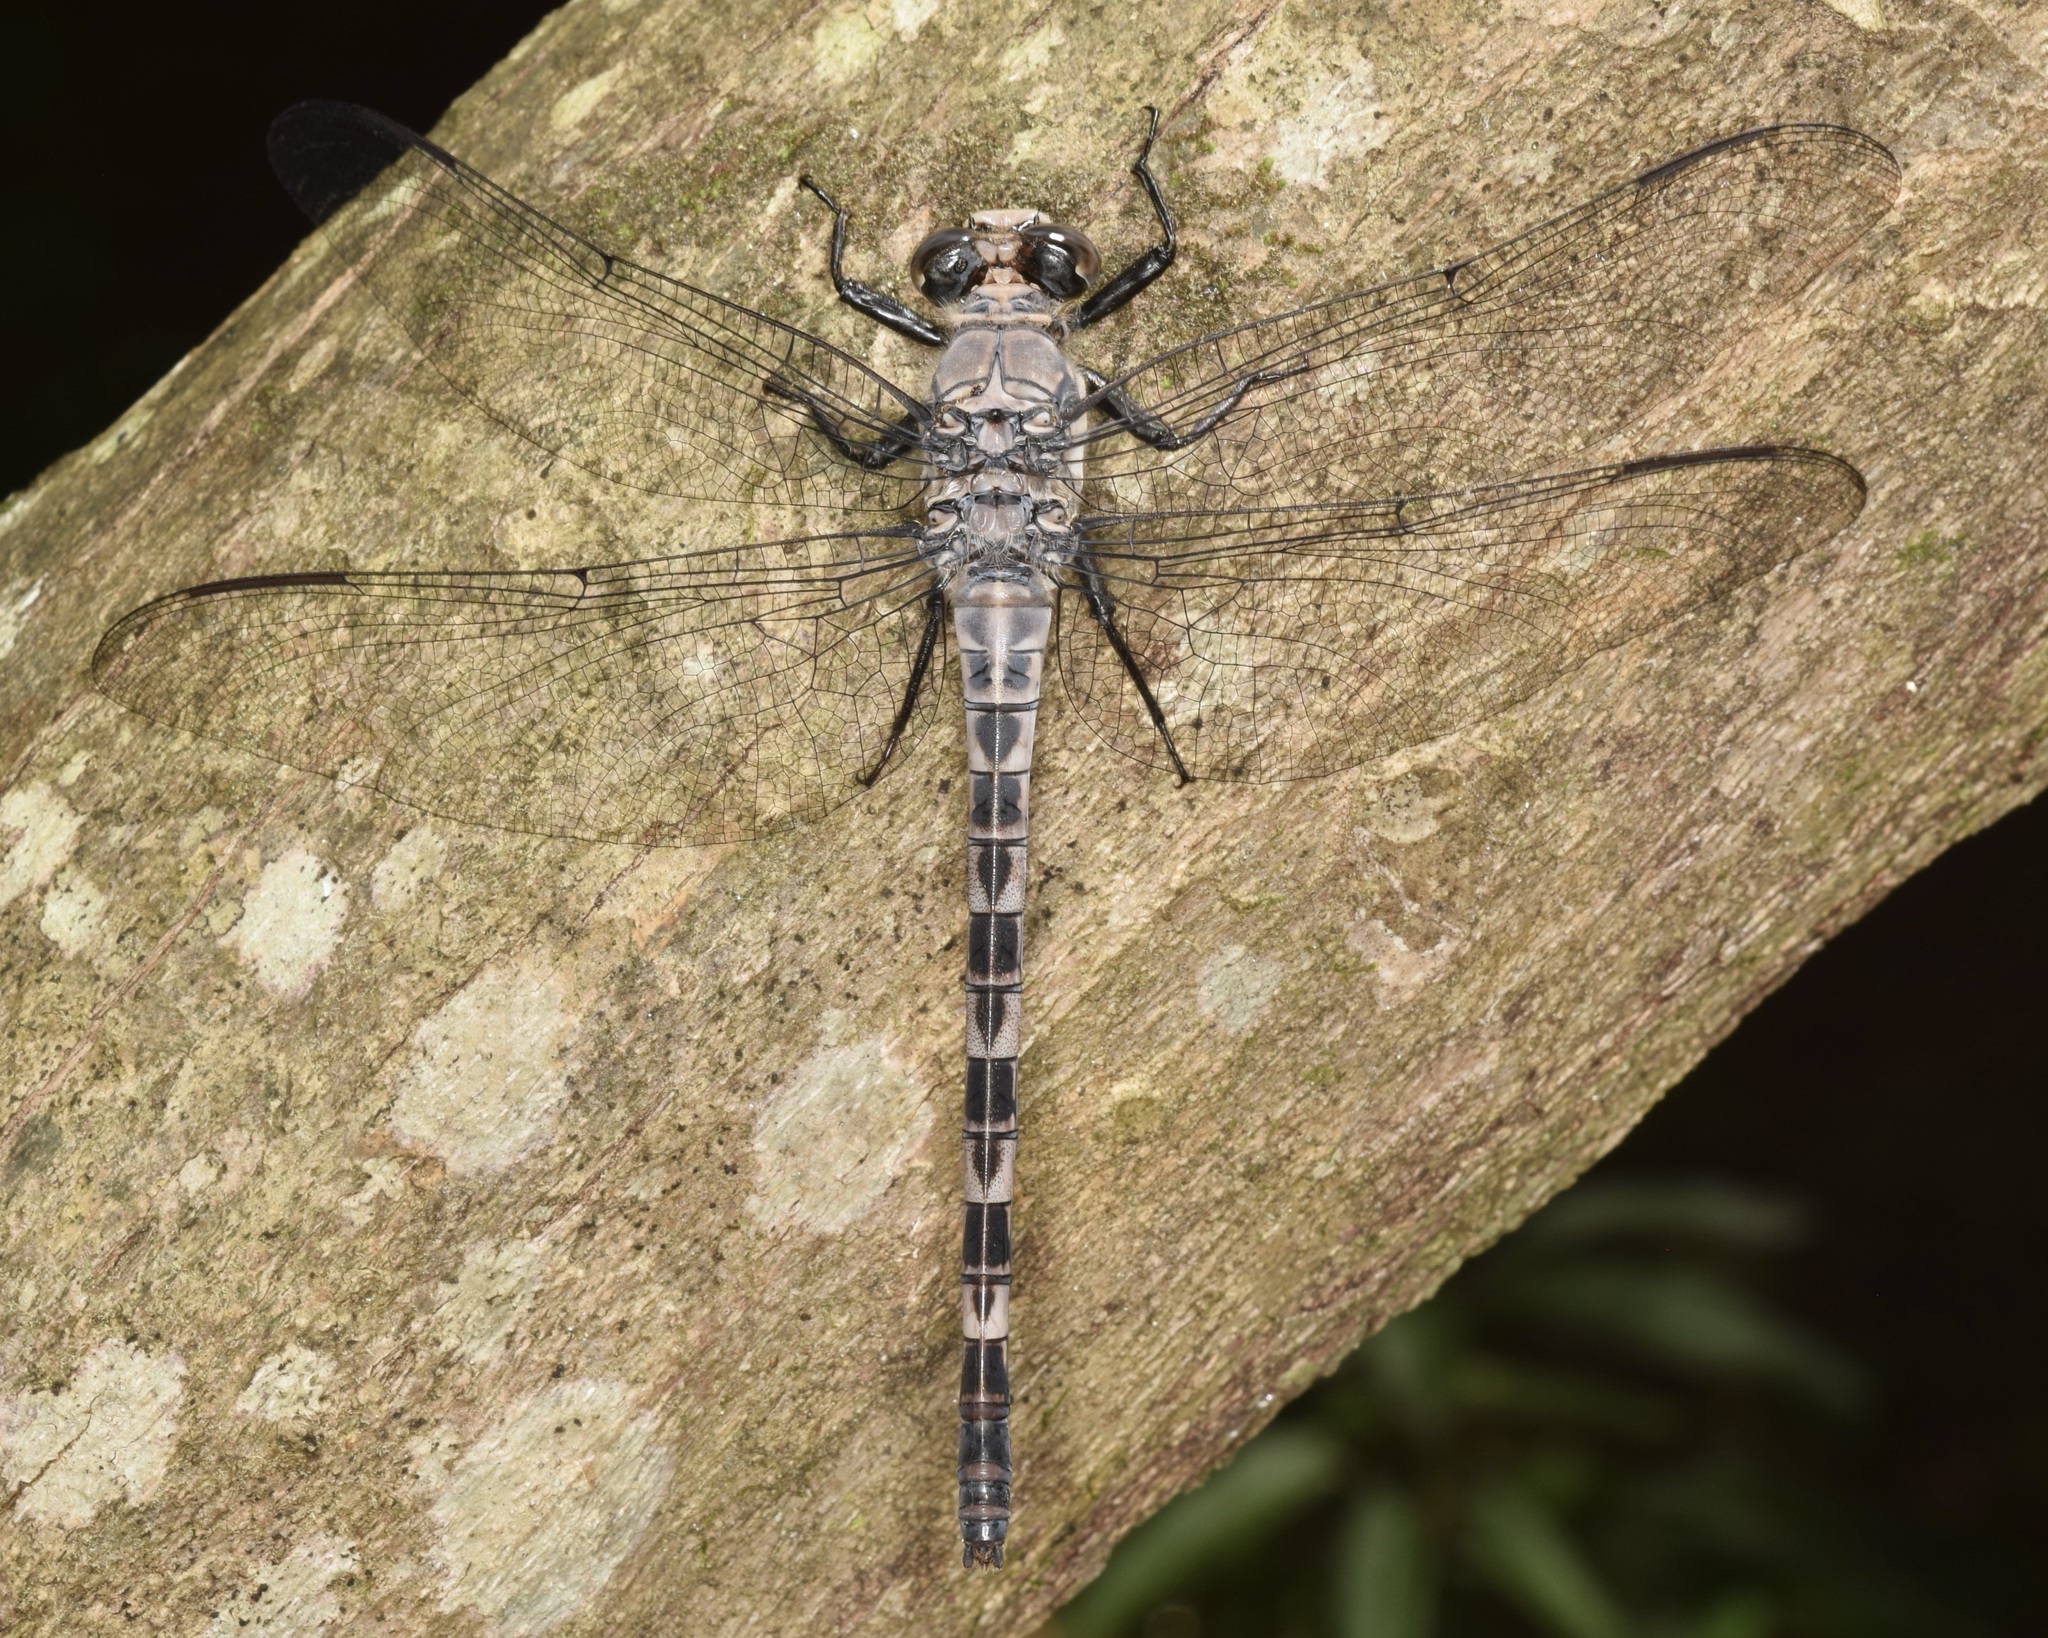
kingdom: Animalia
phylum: Arthropoda
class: Insecta
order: Odonata
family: Petaluridae
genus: Tachopteryx
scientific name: Tachopteryx thoreyi
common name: Gray petaltail
